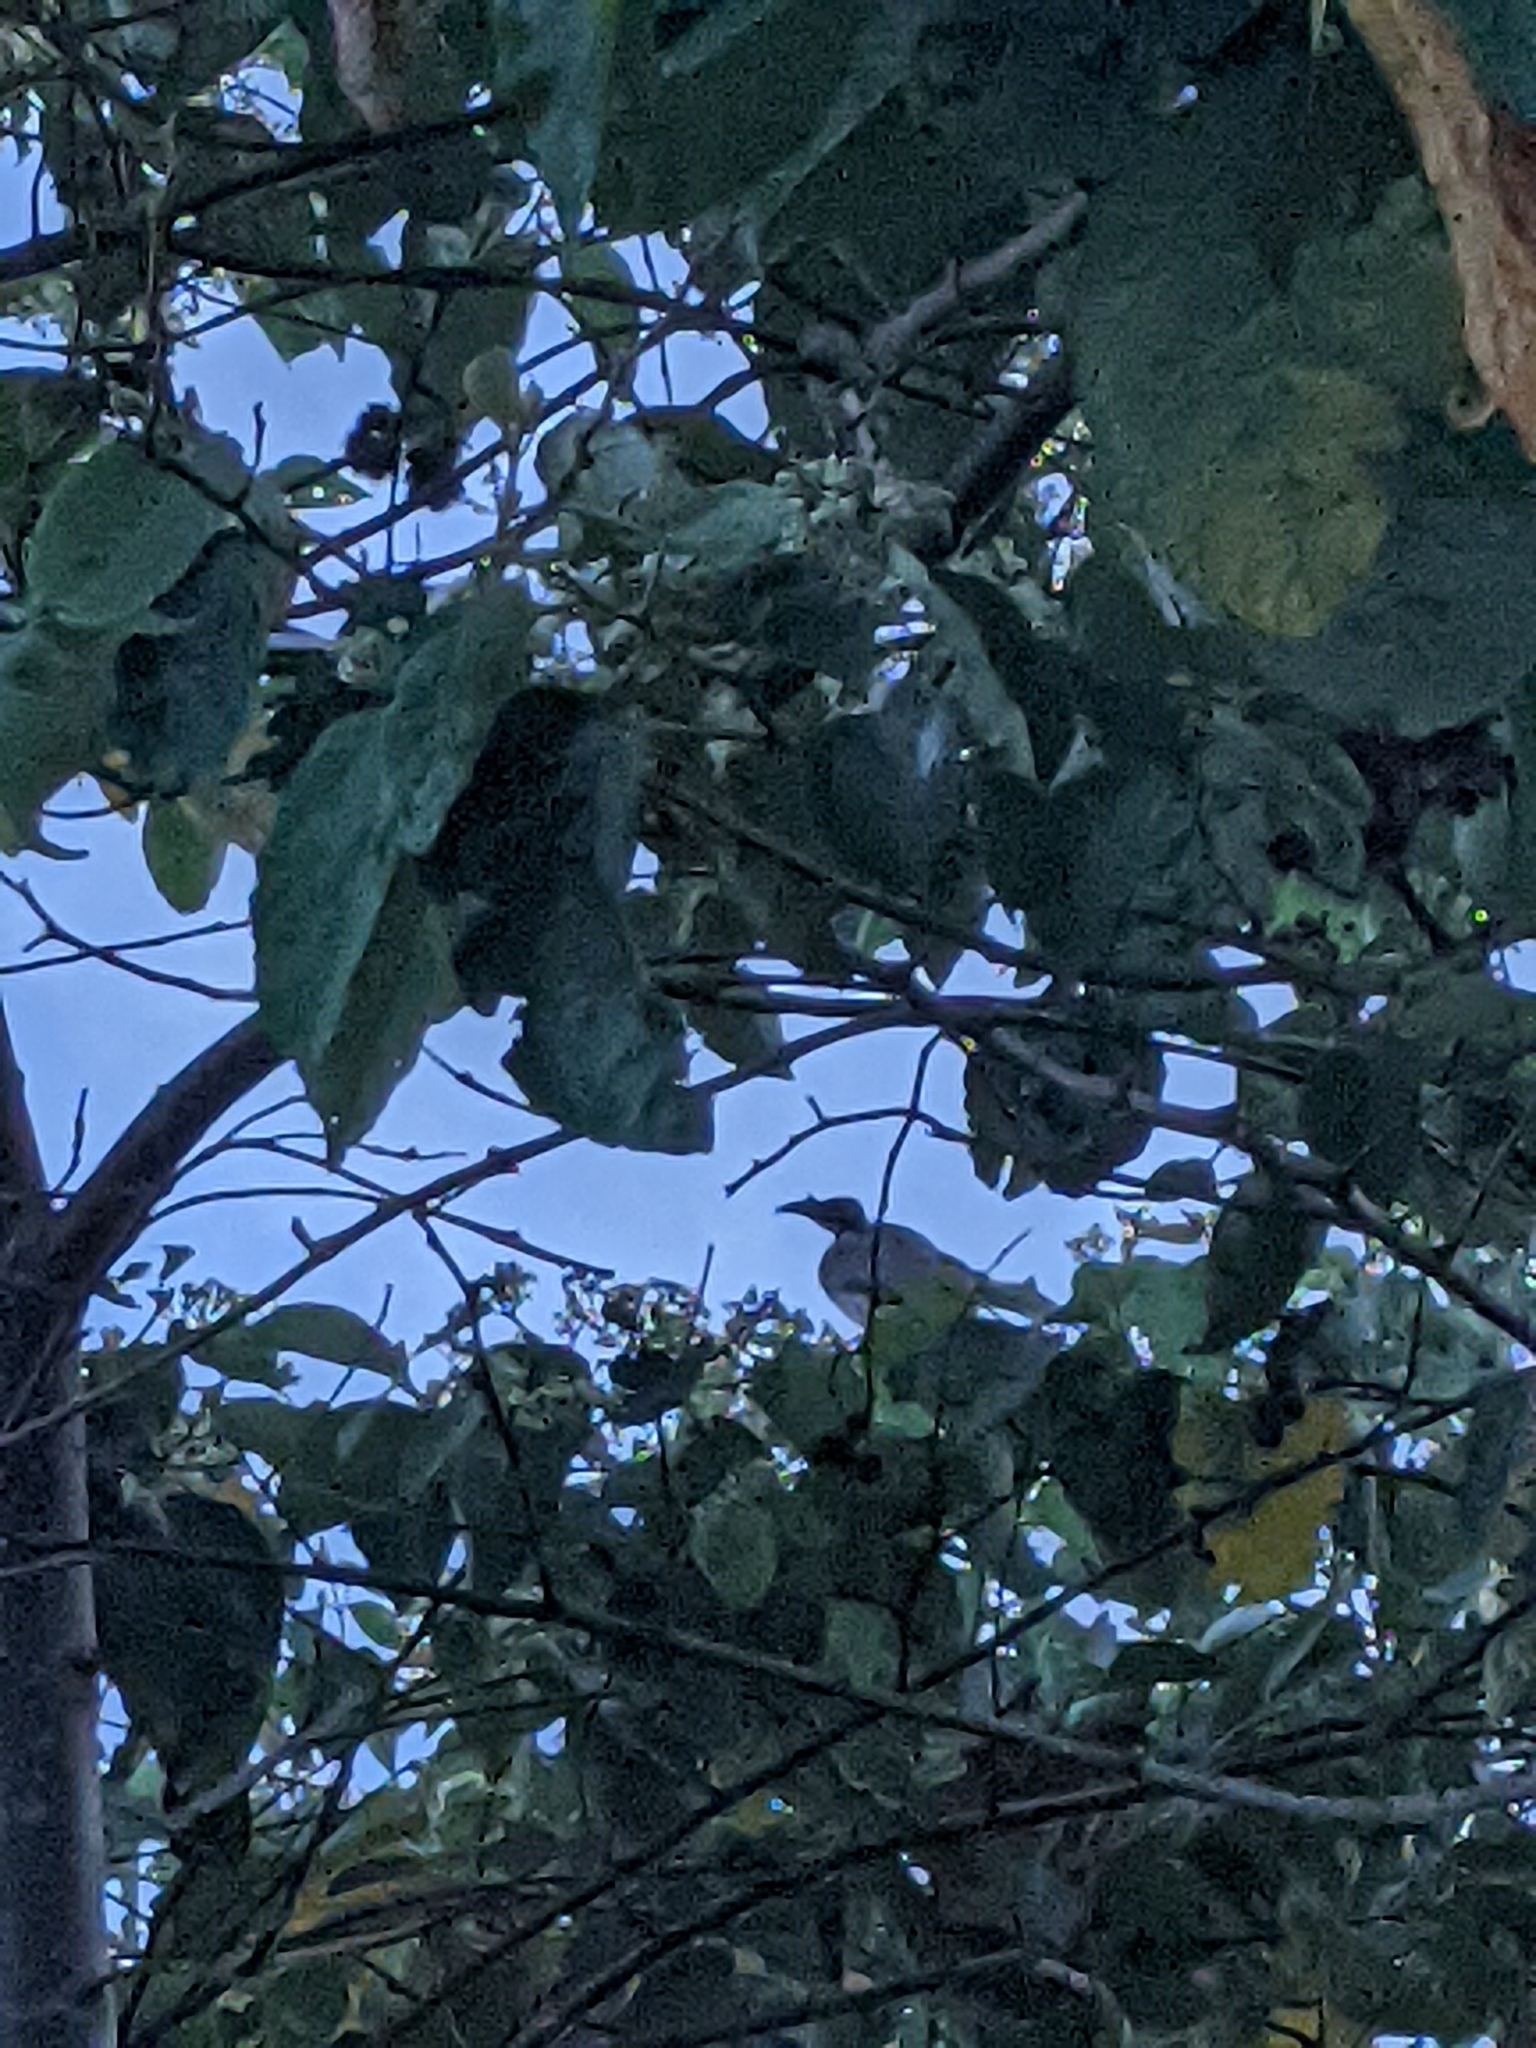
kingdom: Animalia
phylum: Chordata
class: Aves
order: Passeriformes
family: Meliphagidae
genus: Philemon
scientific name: Philemon corniculatus
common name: Noisy friarbird
